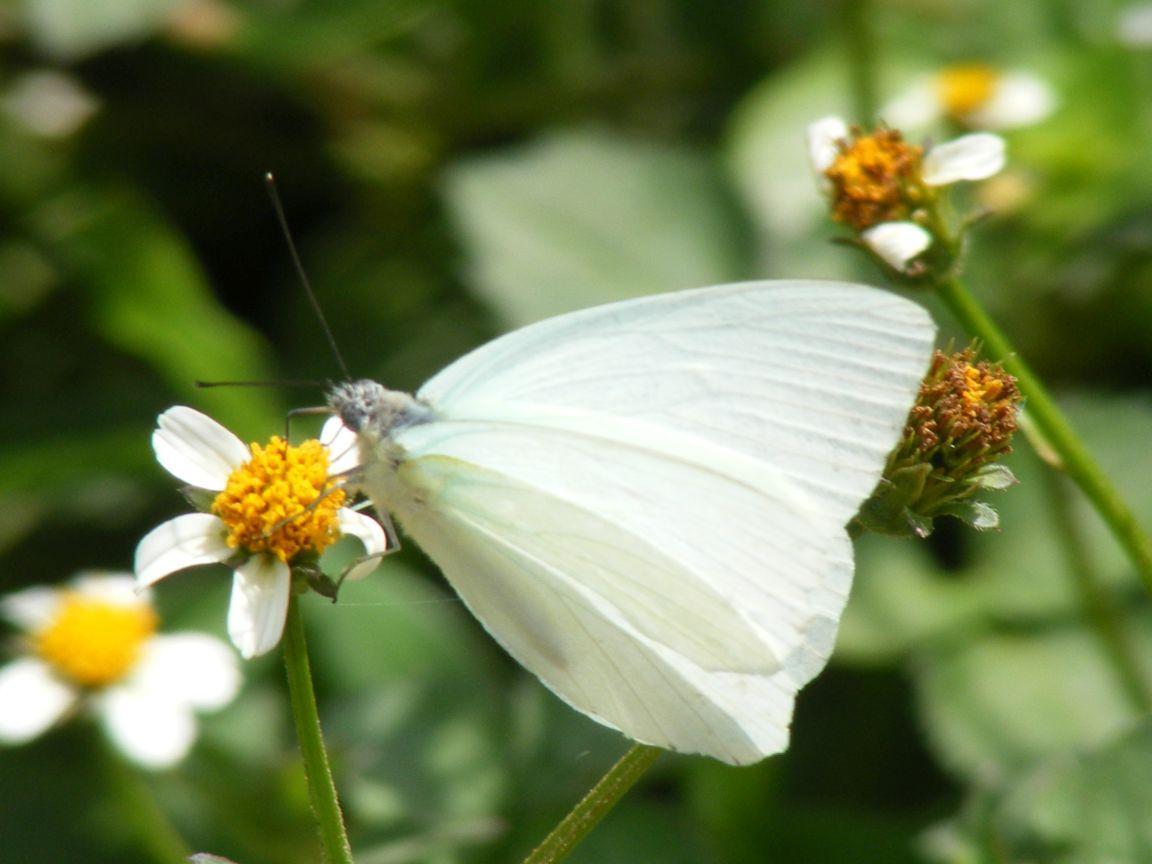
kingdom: Animalia
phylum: Arthropoda
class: Insecta
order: Lepidoptera
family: Pieridae
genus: Dixeia
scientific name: Dixeia pigea
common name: Ant-heap small white
